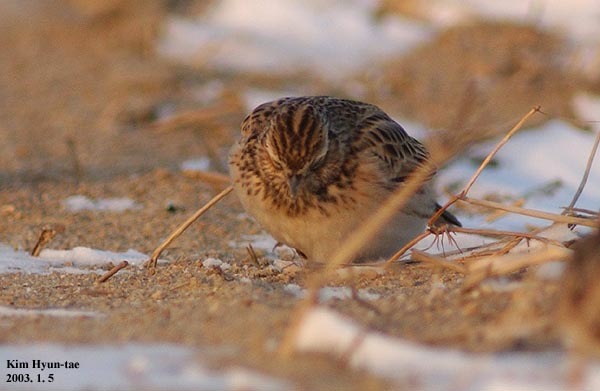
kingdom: Animalia
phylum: Chordata
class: Aves
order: Passeriformes
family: Alaudidae
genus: Alauda
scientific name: Alauda arvensis
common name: Eurasian skylark
